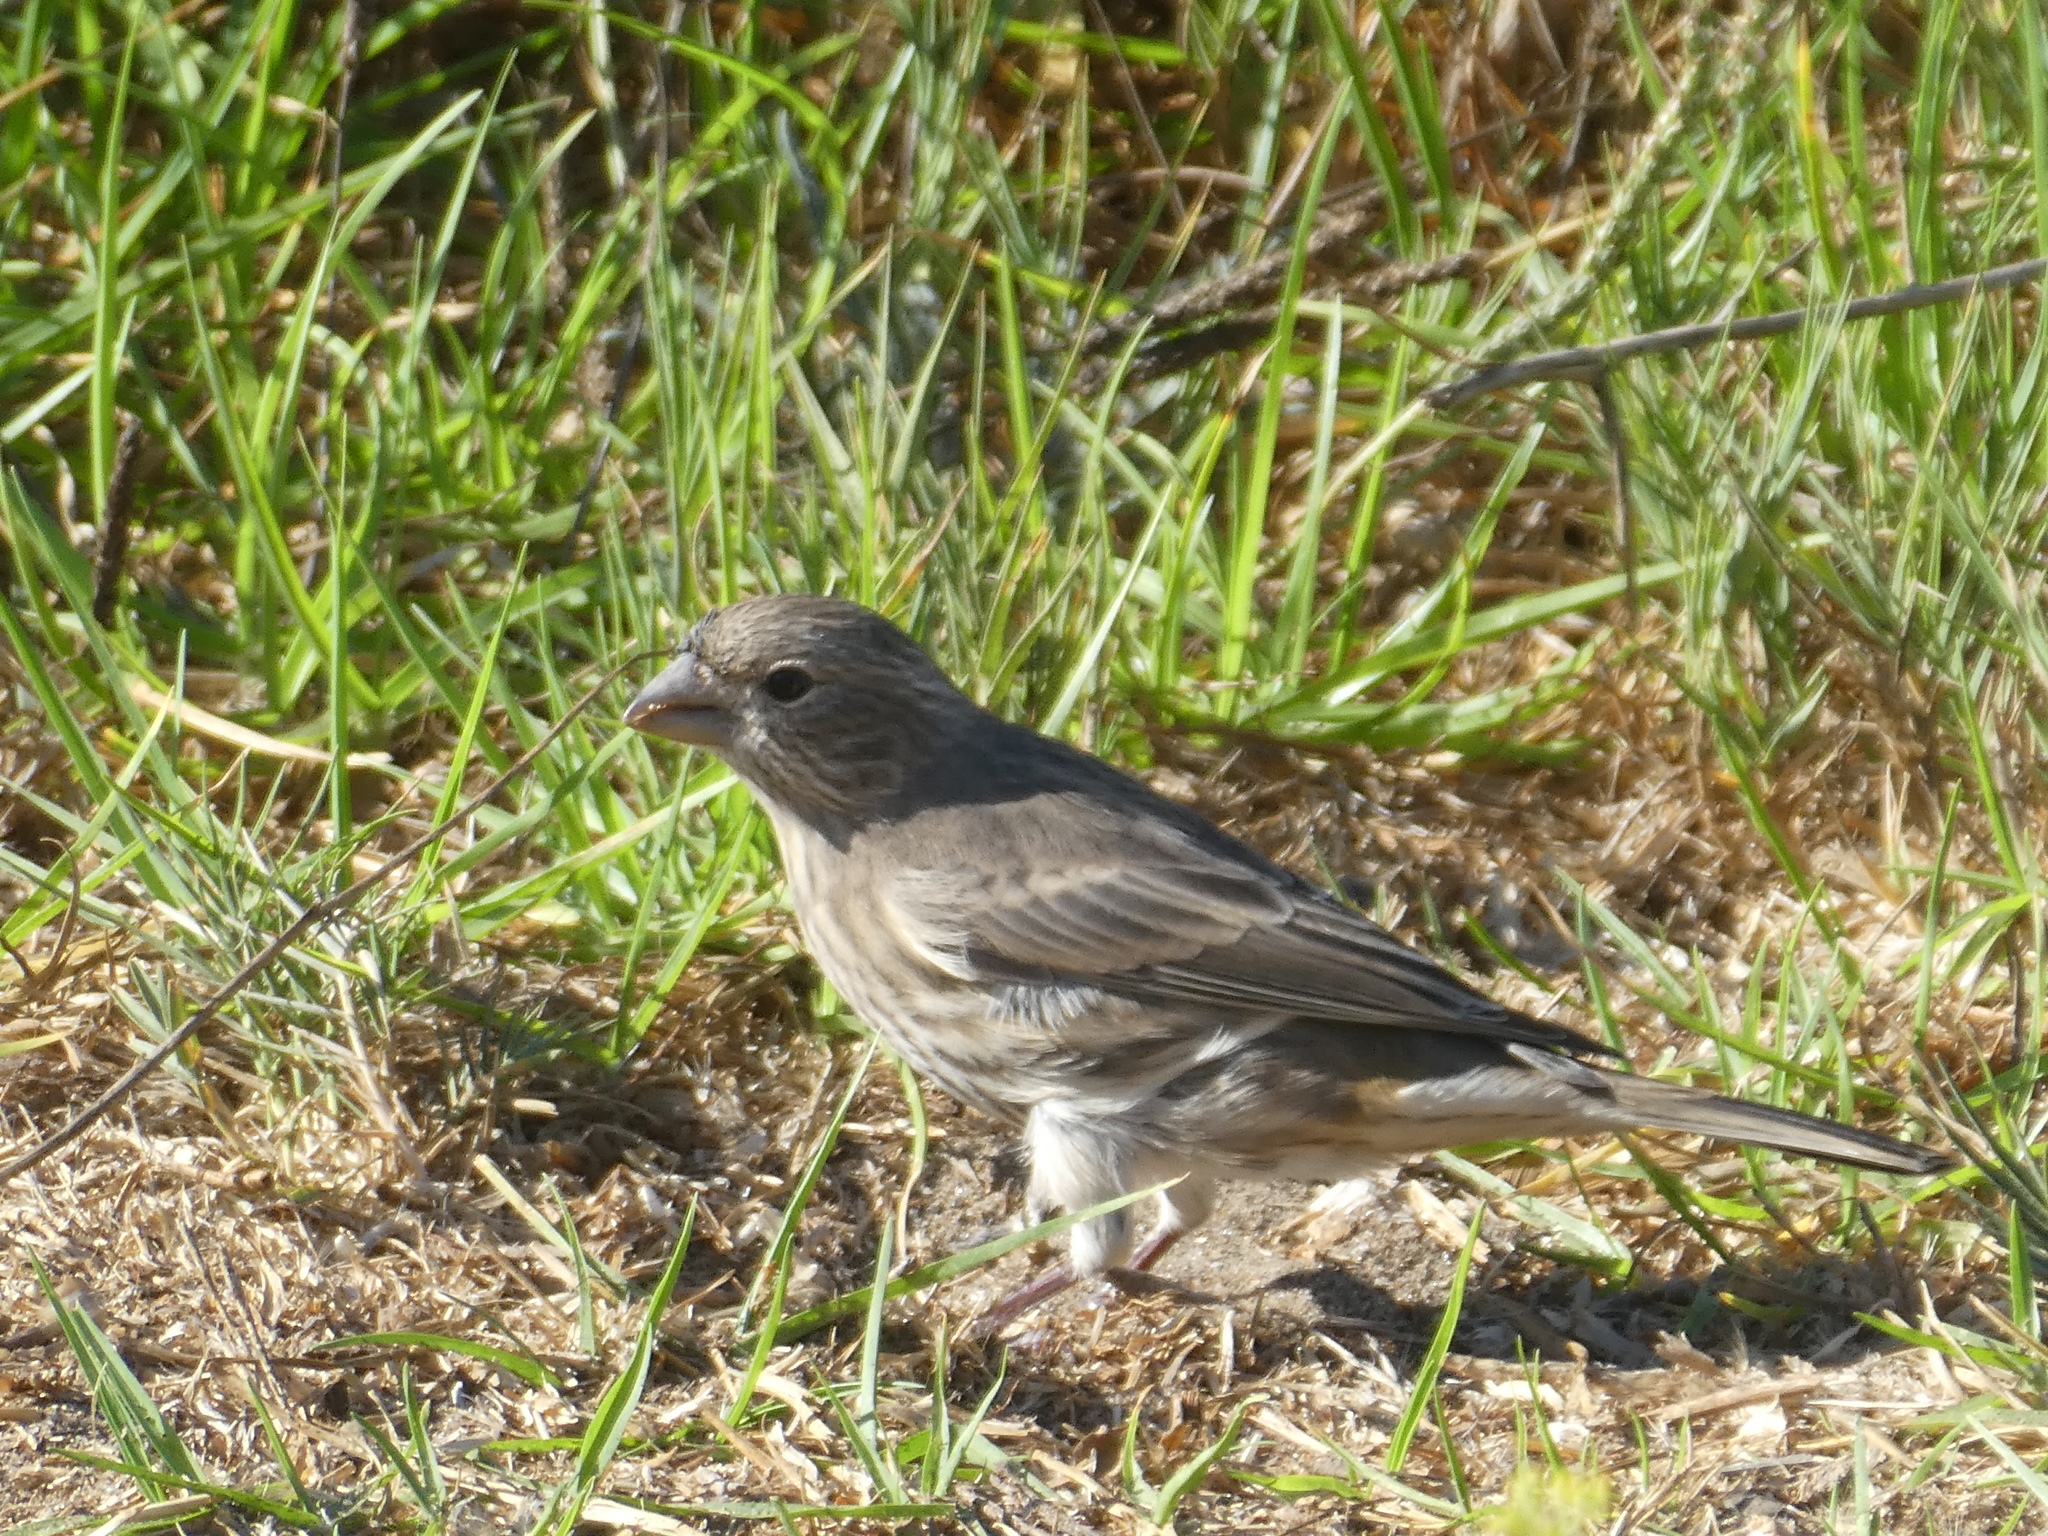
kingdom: Animalia
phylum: Chordata
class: Aves
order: Passeriformes
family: Fringillidae
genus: Haemorhous
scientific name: Haemorhous mexicanus
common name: House finch
